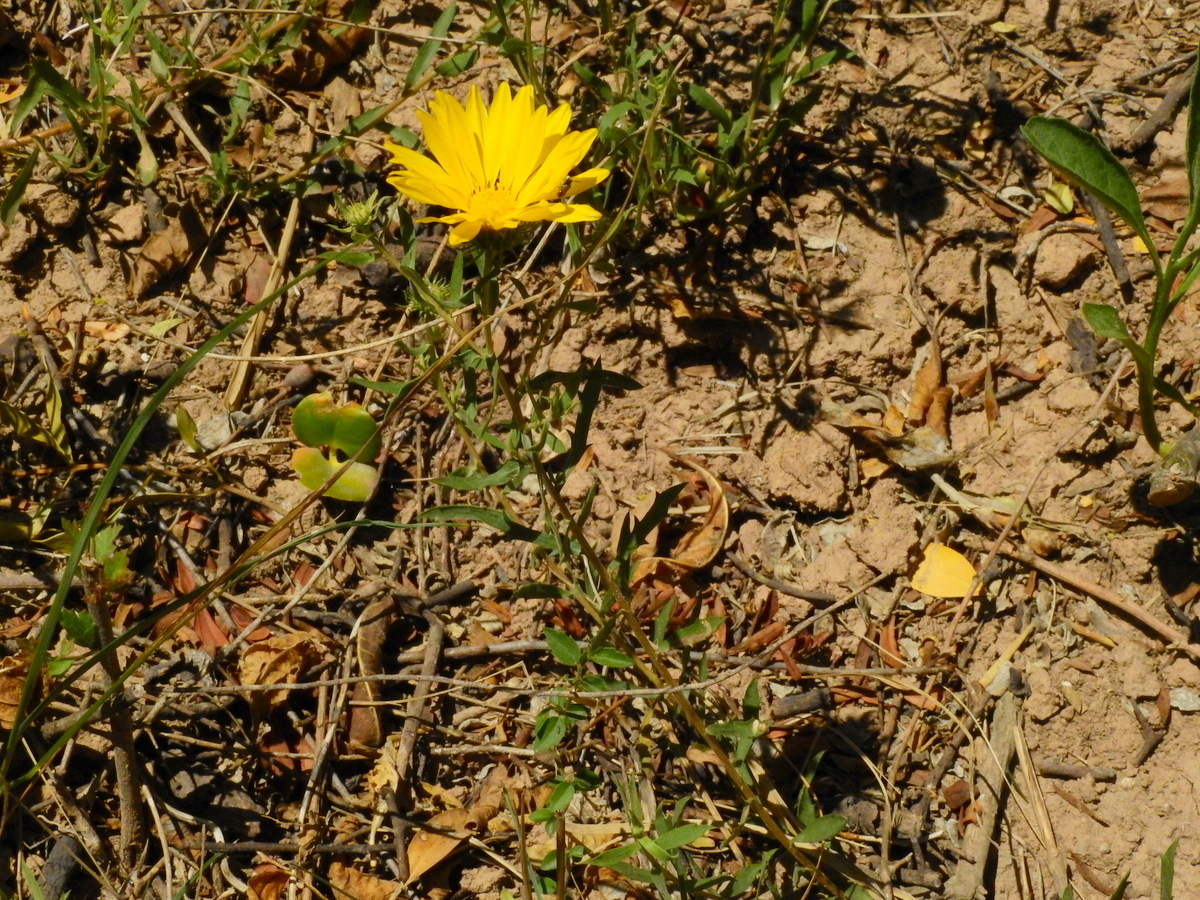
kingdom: Plantae
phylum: Tracheophyta
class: Magnoliopsida
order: Asterales
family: Asteraceae
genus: Grindelia
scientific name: Grindelia pulchella
